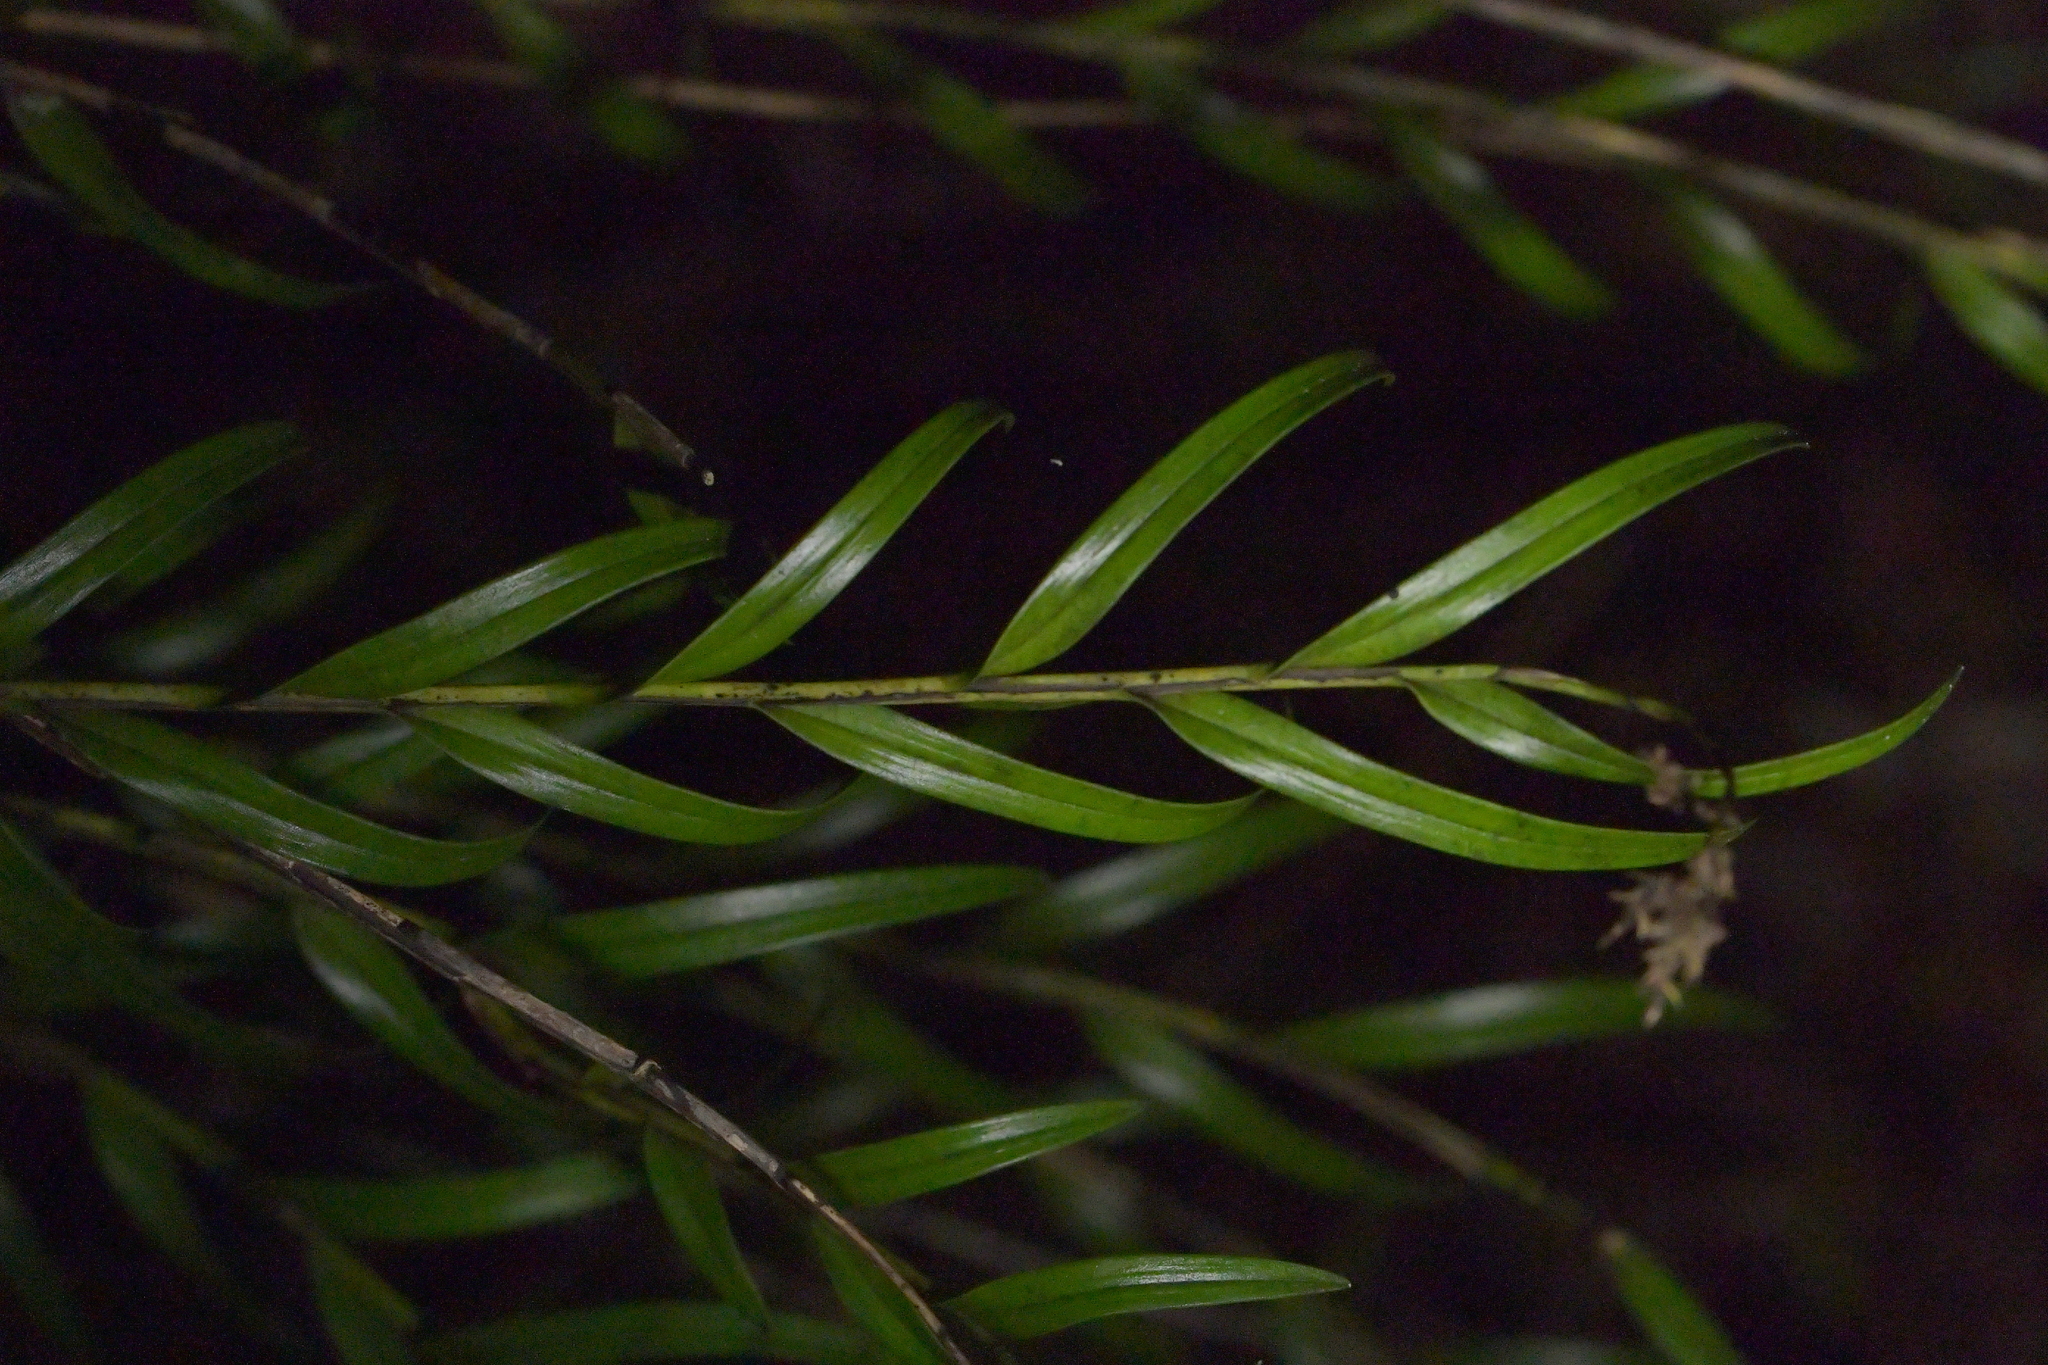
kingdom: Plantae
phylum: Tracheophyta
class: Liliopsida
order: Asparagales
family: Orchidaceae
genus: Earina
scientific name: Earina autumnalis
